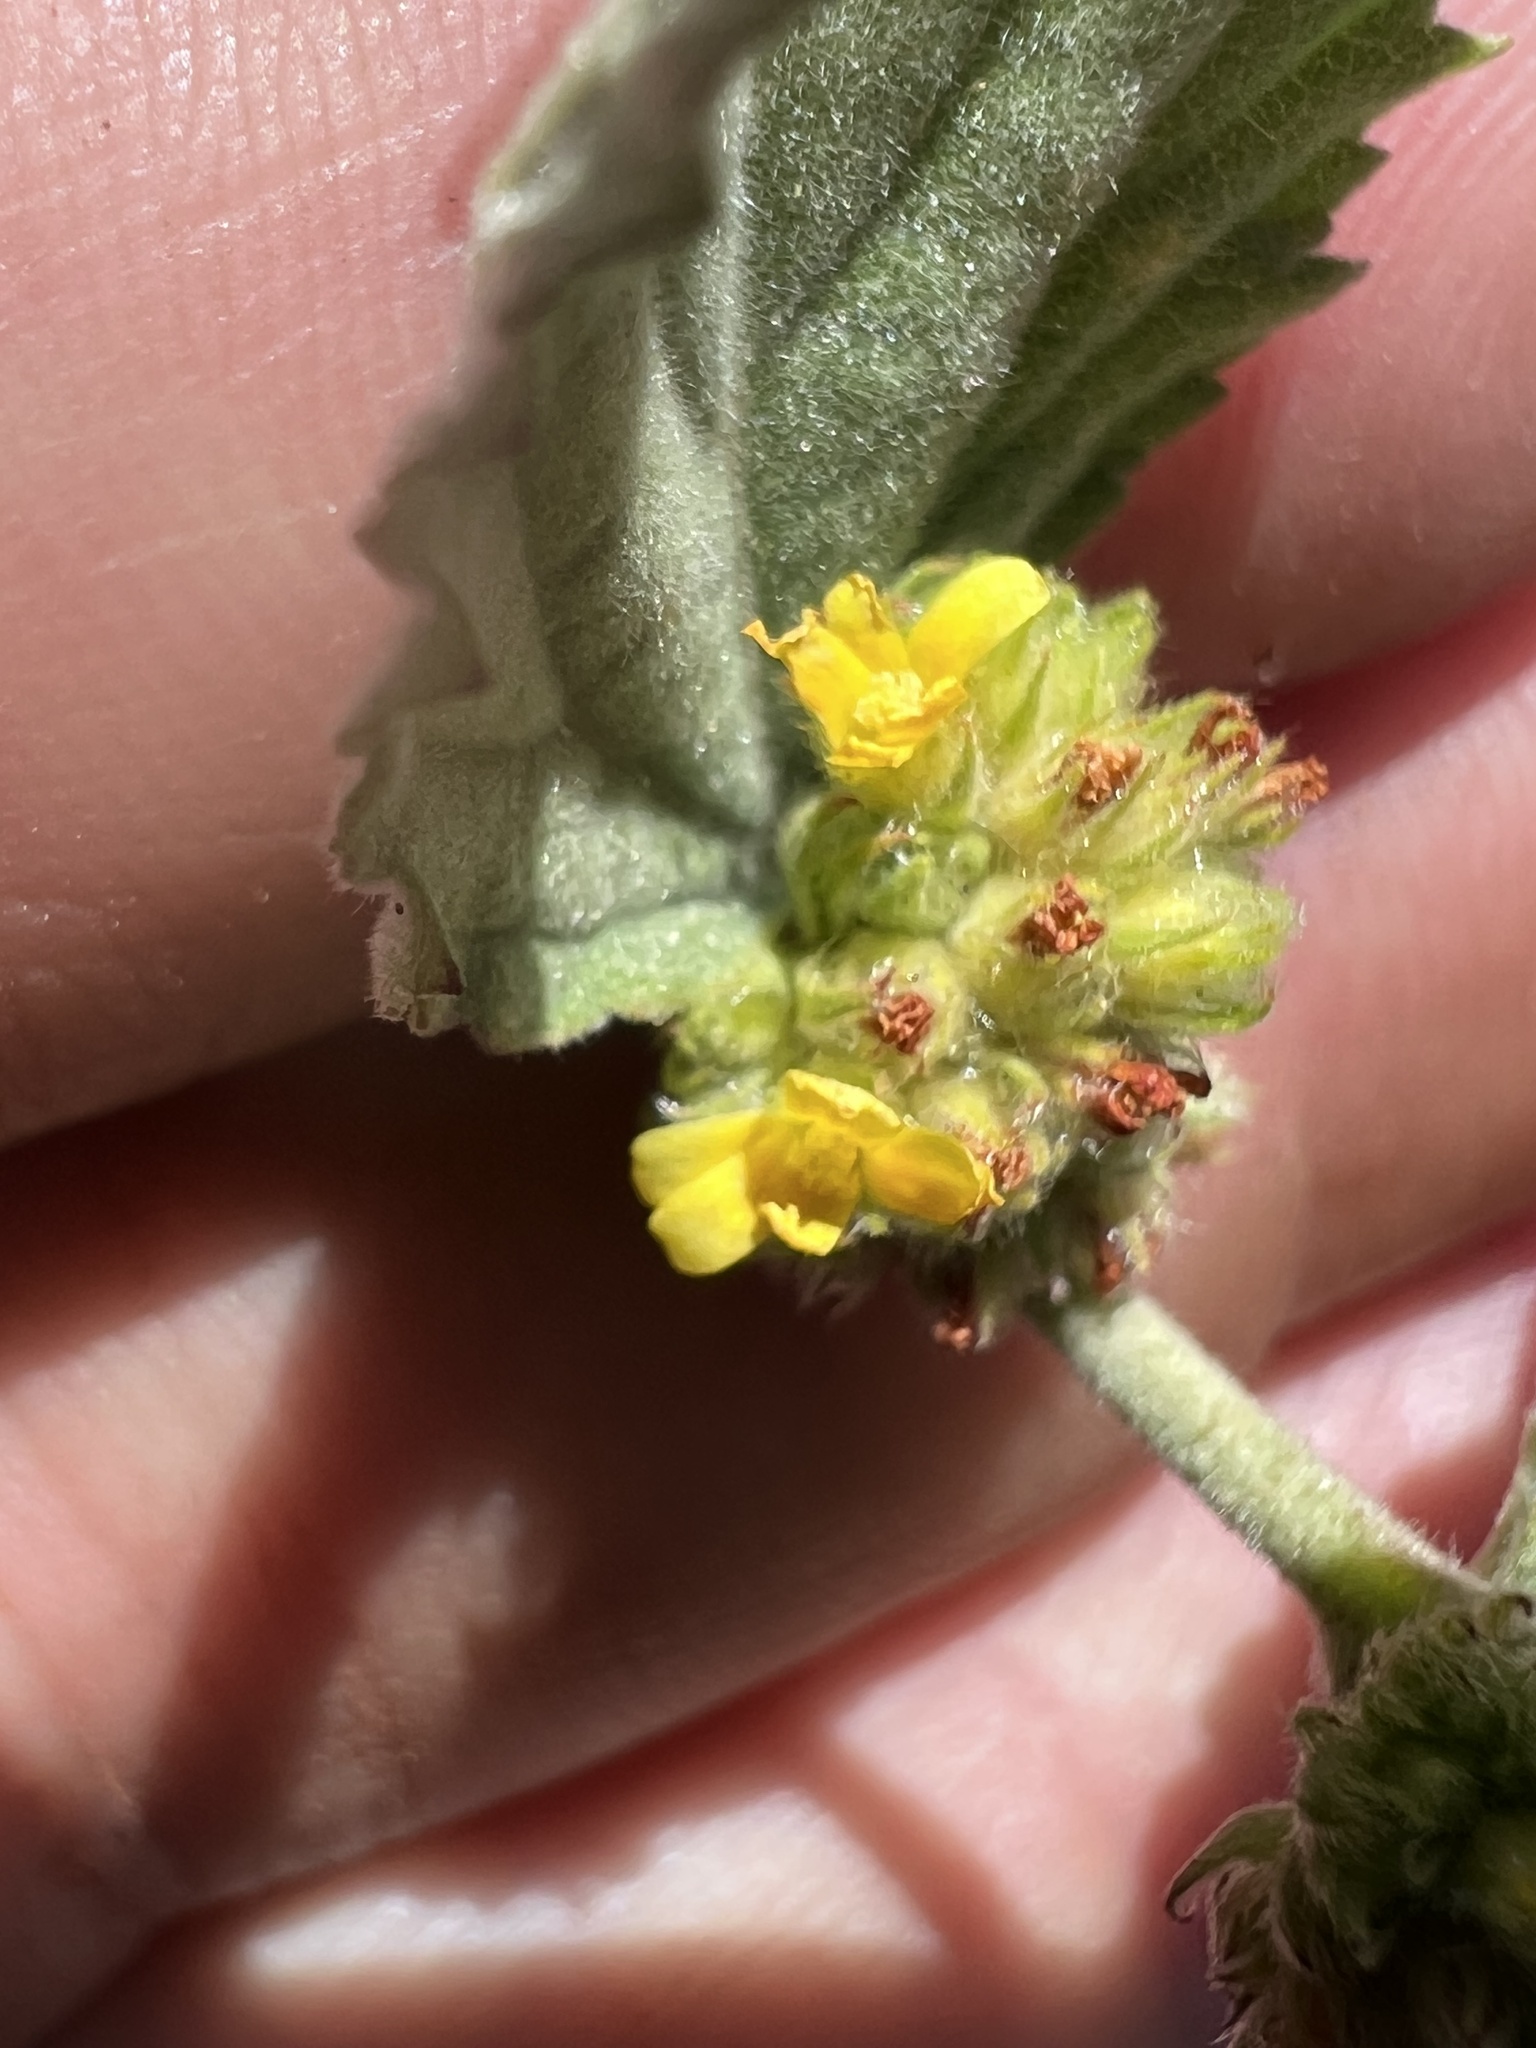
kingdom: Plantae
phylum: Tracheophyta
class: Magnoliopsida
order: Malvales
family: Malvaceae
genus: Waltheria
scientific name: Waltheria indica
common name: Leather-coat
